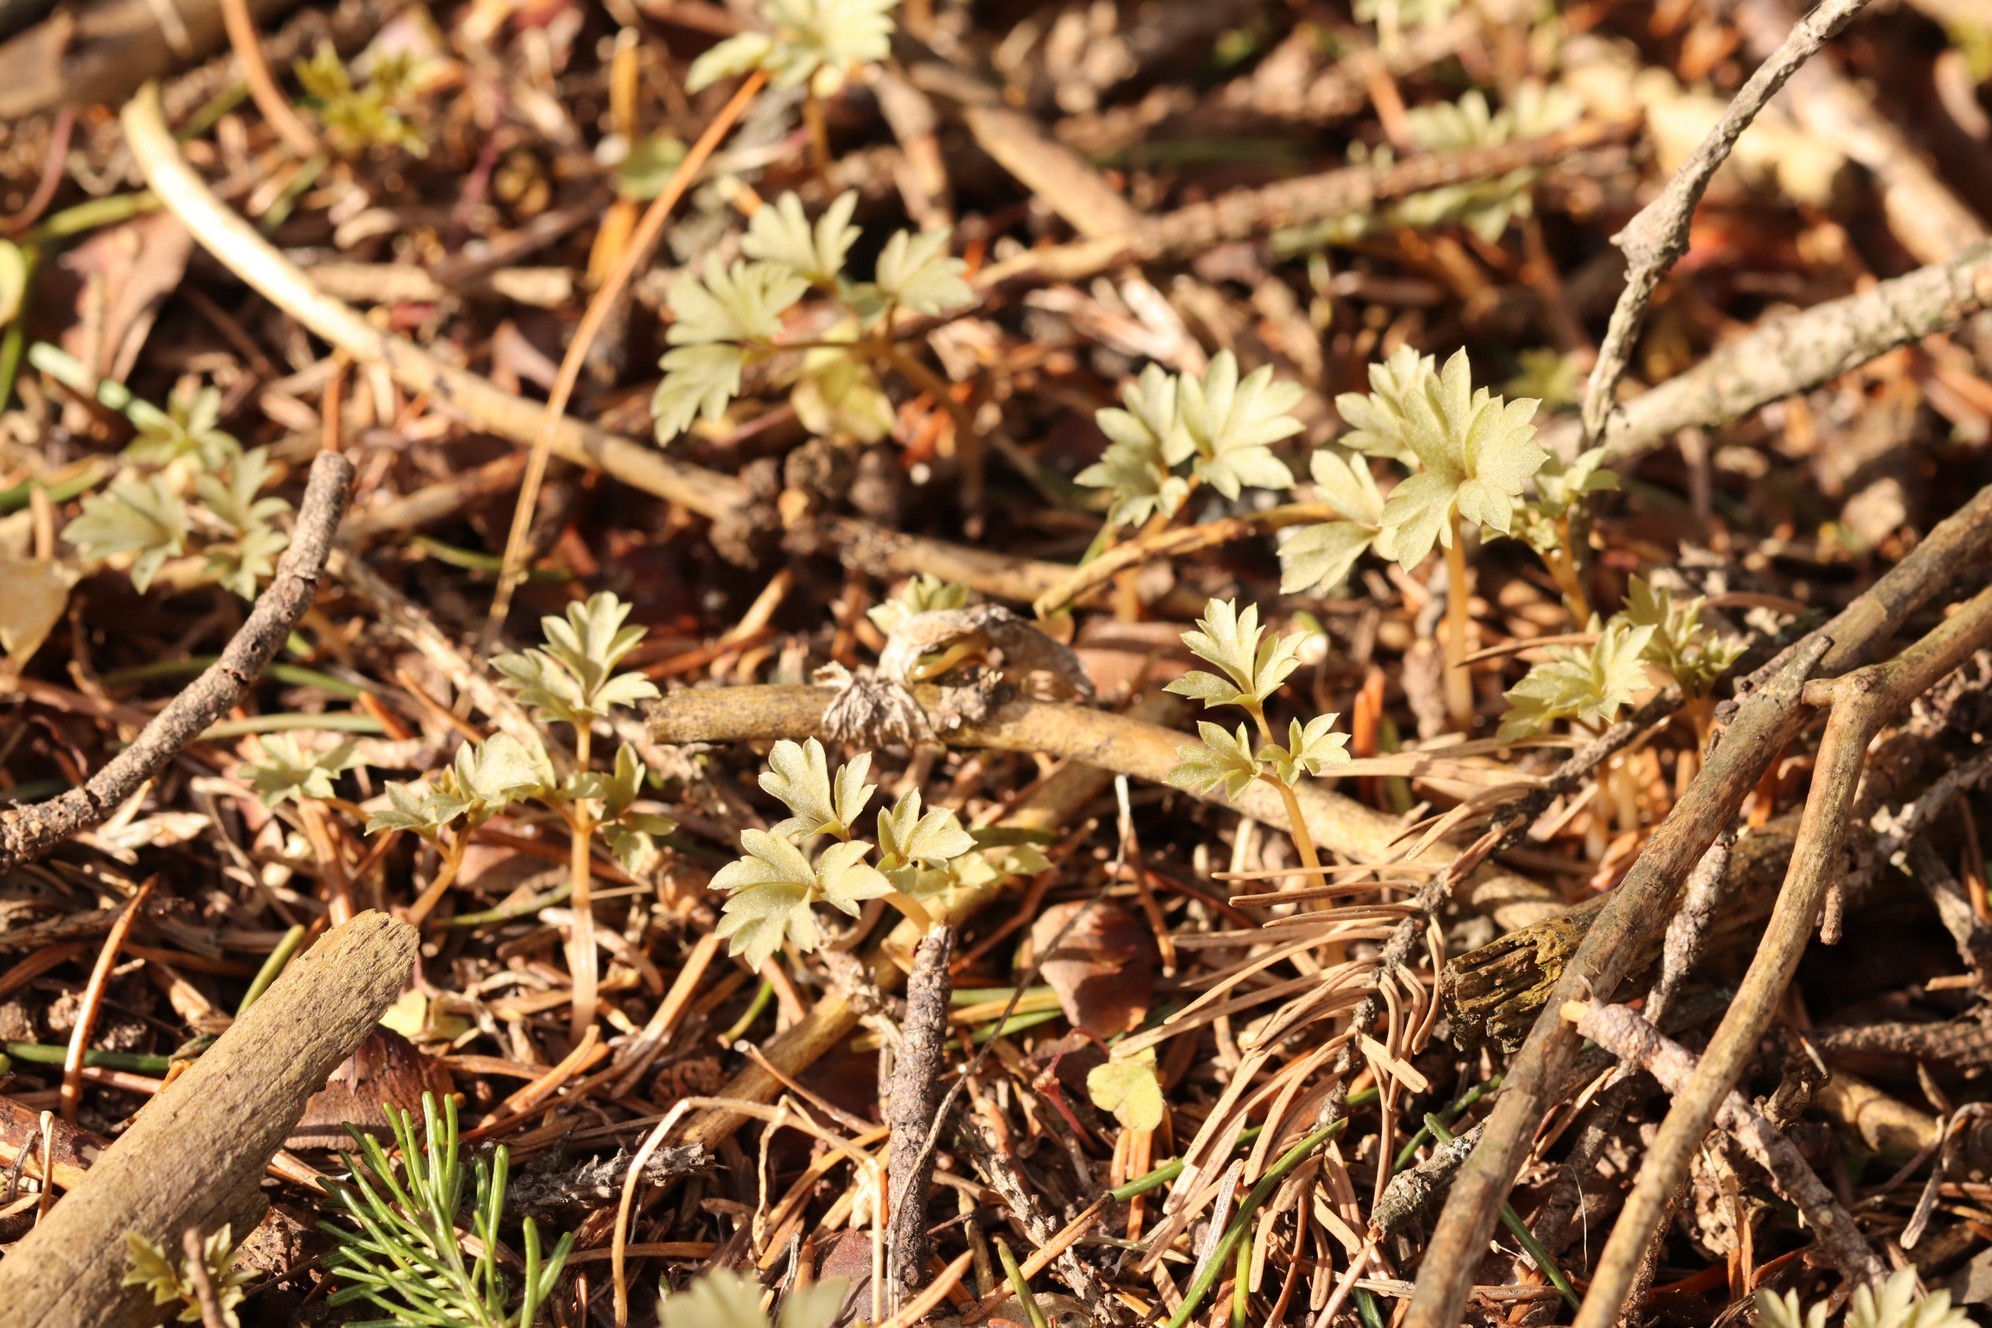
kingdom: Plantae
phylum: Tracheophyta
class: Magnoliopsida
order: Dipsacales
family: Viburnaceae
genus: Adoxa
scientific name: Adoxa moschatellina
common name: Moschatel
